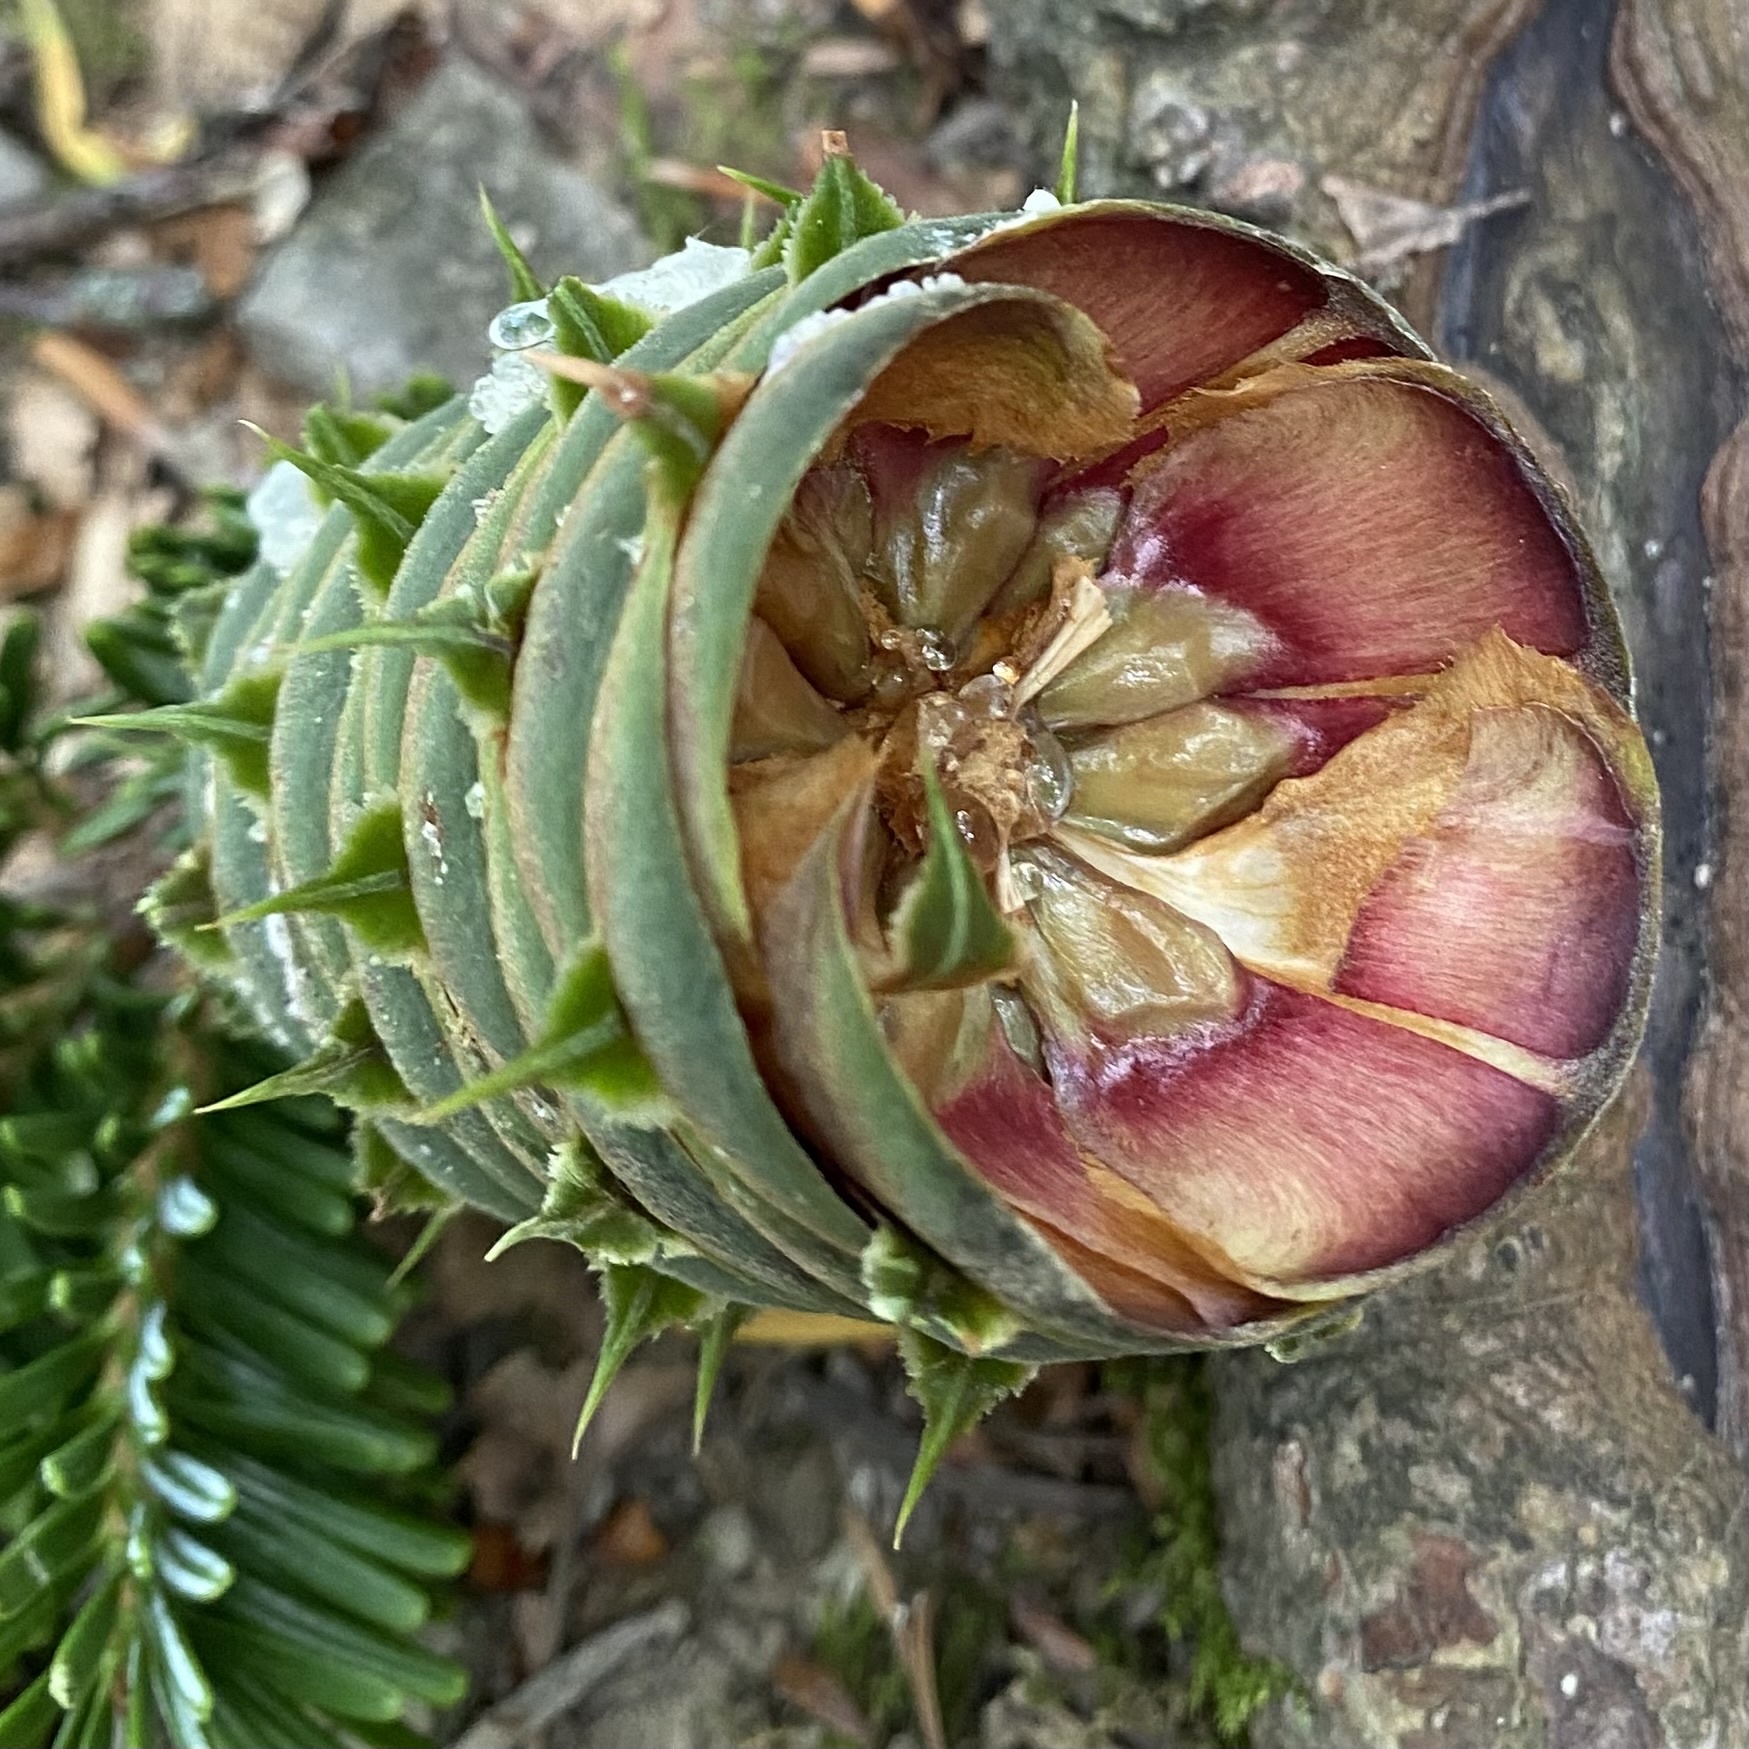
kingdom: Plantae
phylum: Tracheophyta
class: Pinopsida
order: Pinales
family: Pinaceae
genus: Abies
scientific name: Abies alba
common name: Silver fir
